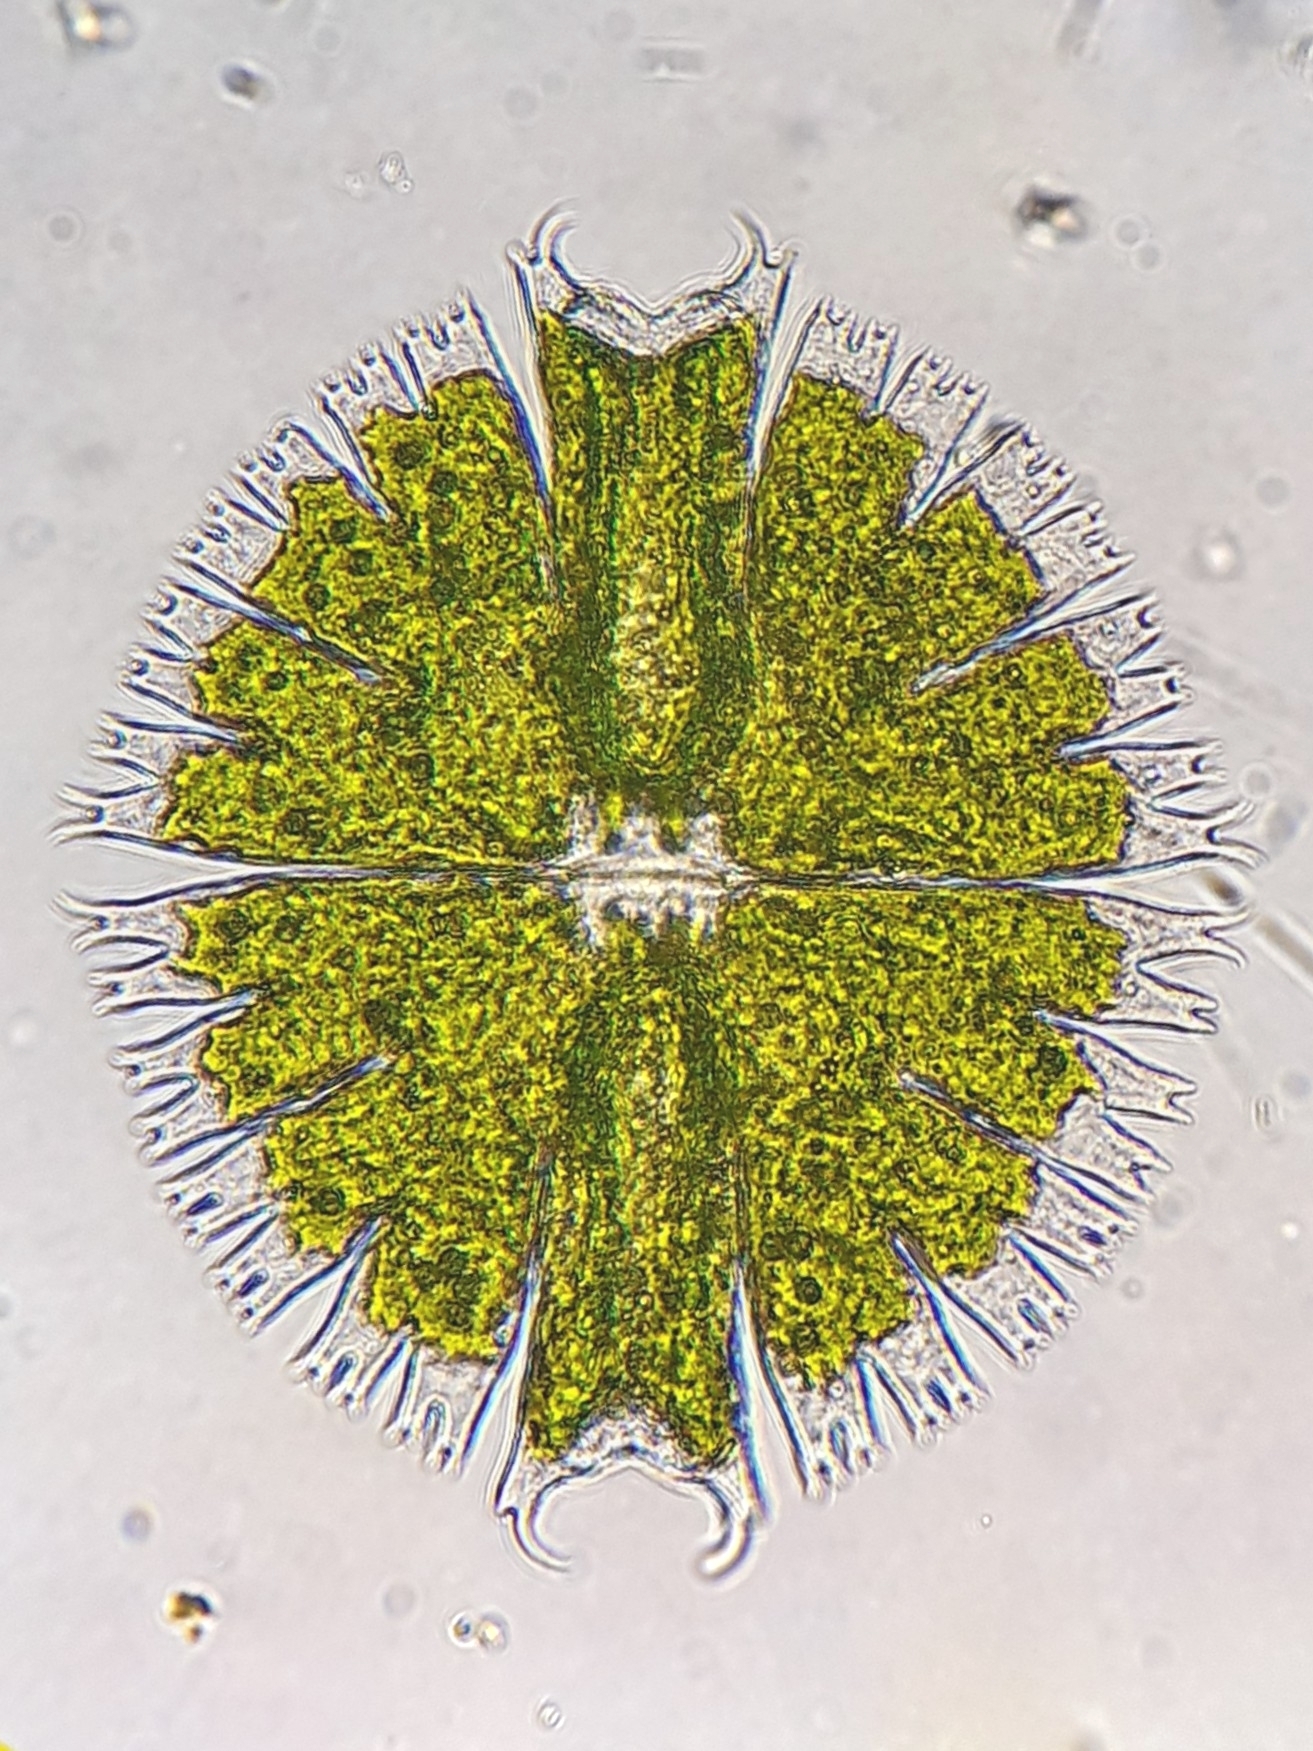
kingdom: Plantae
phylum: Charophyta
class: Conjugatophyceae
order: Desmidiales
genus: Micrasterias
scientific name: Micrasterias compereana
